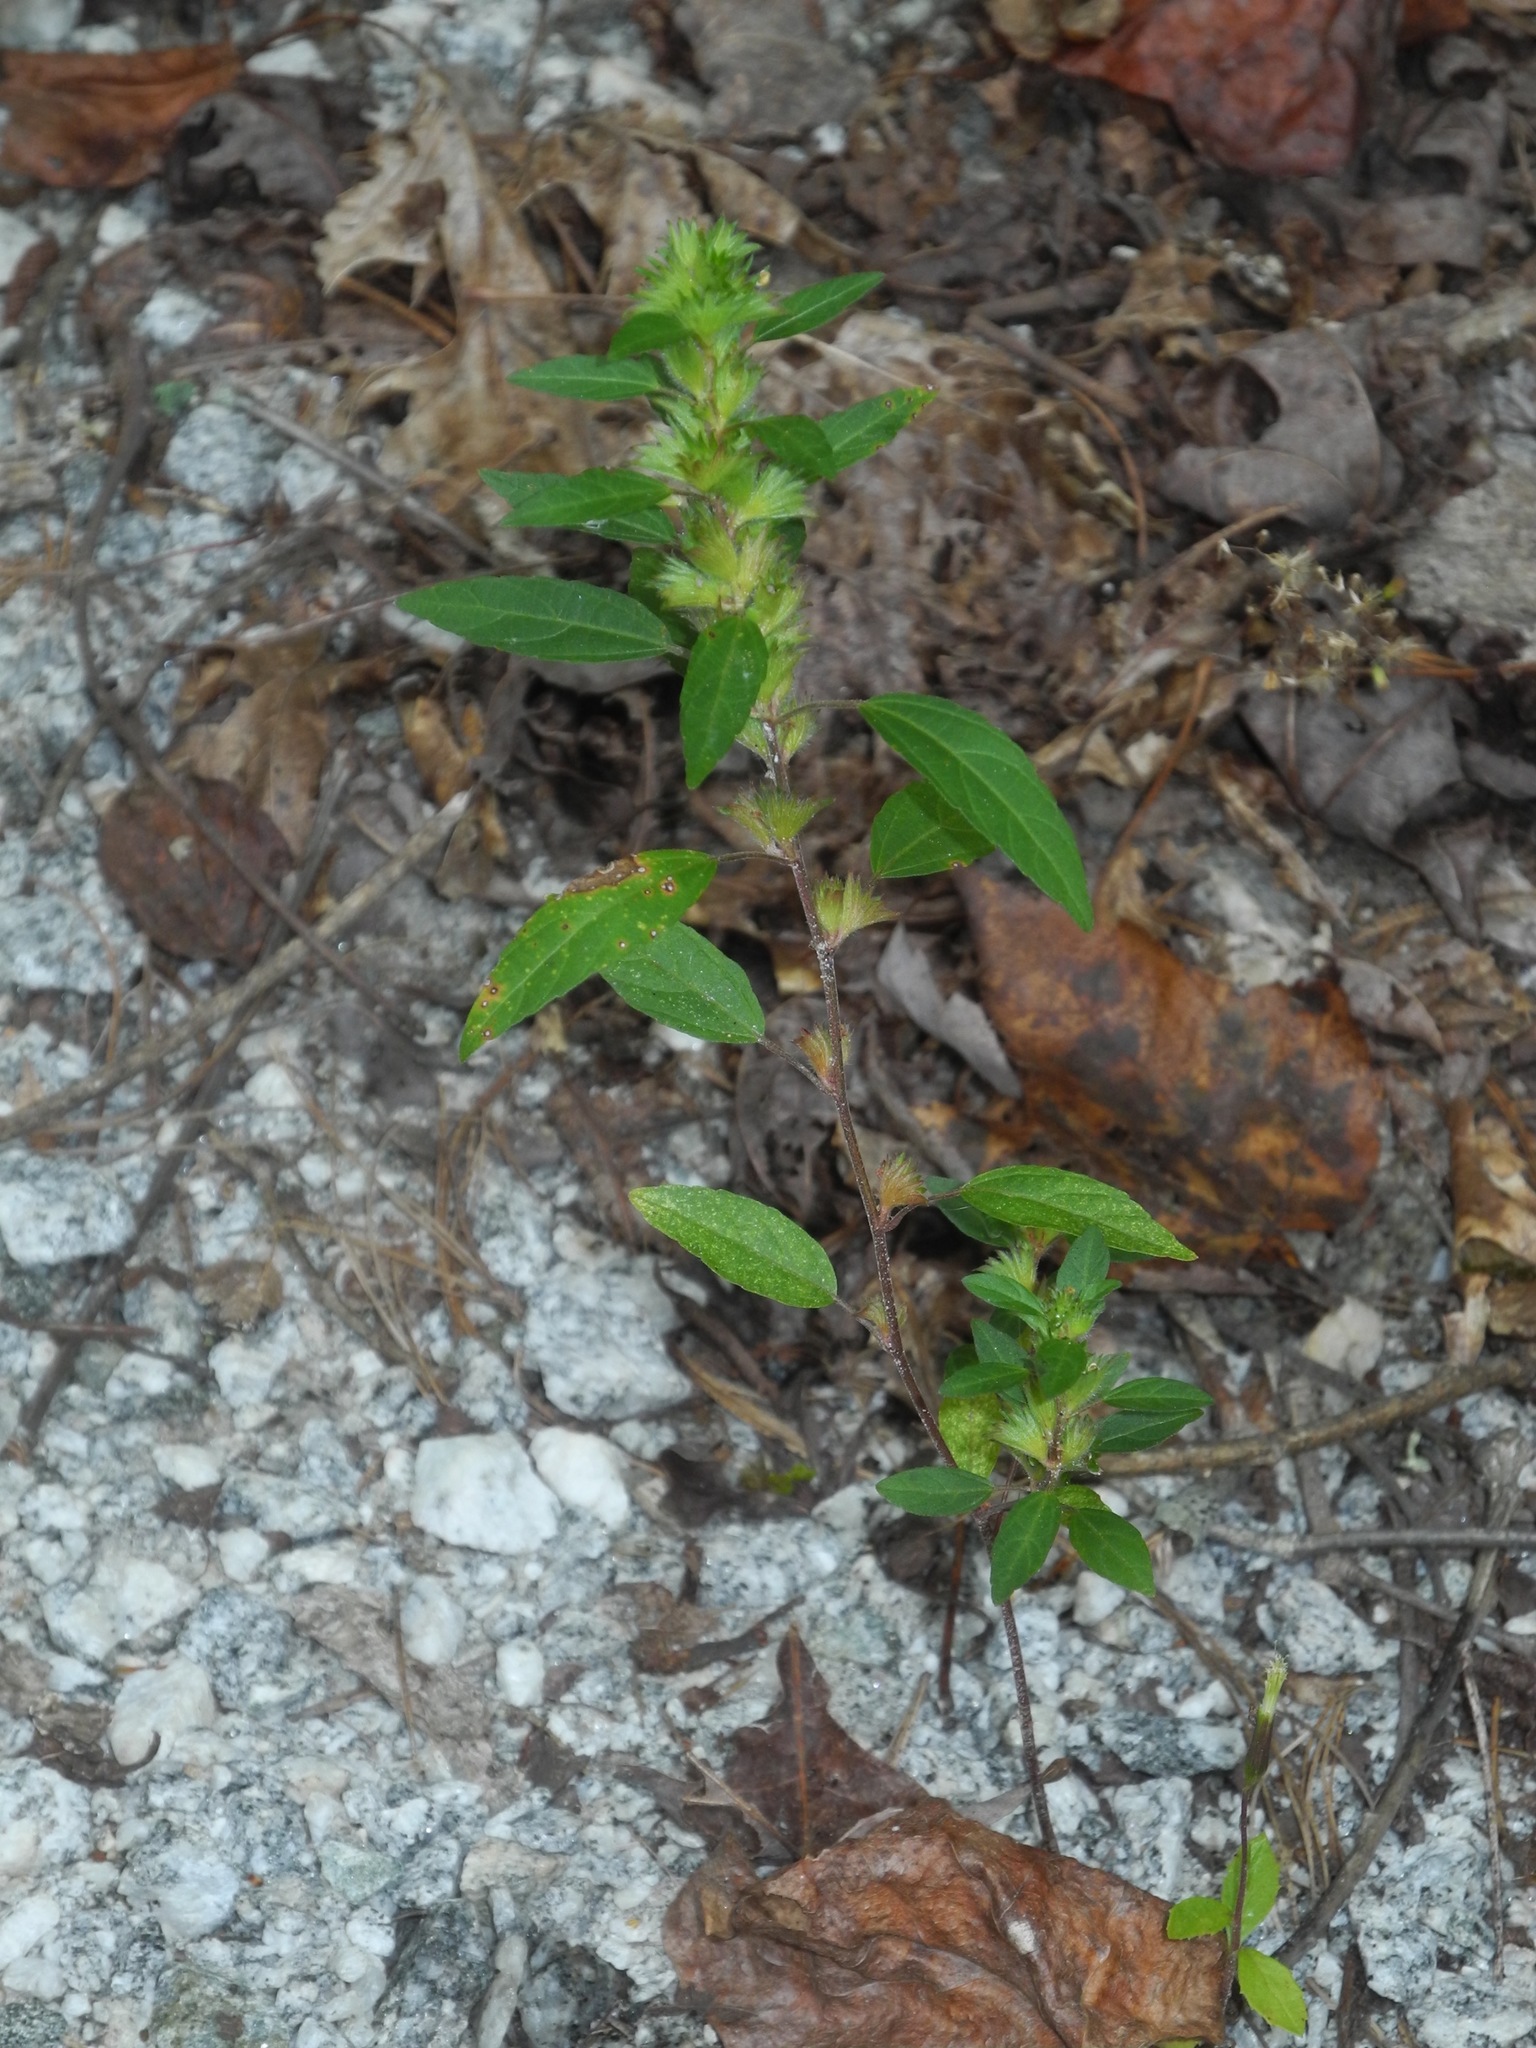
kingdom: Plantae
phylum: Tracheophyta
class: Magnoliopsida
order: Malpighiales
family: Euphorbiaceae
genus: Acalypha
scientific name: Acalypha rhomboidea
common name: Rhombic copperleaf
